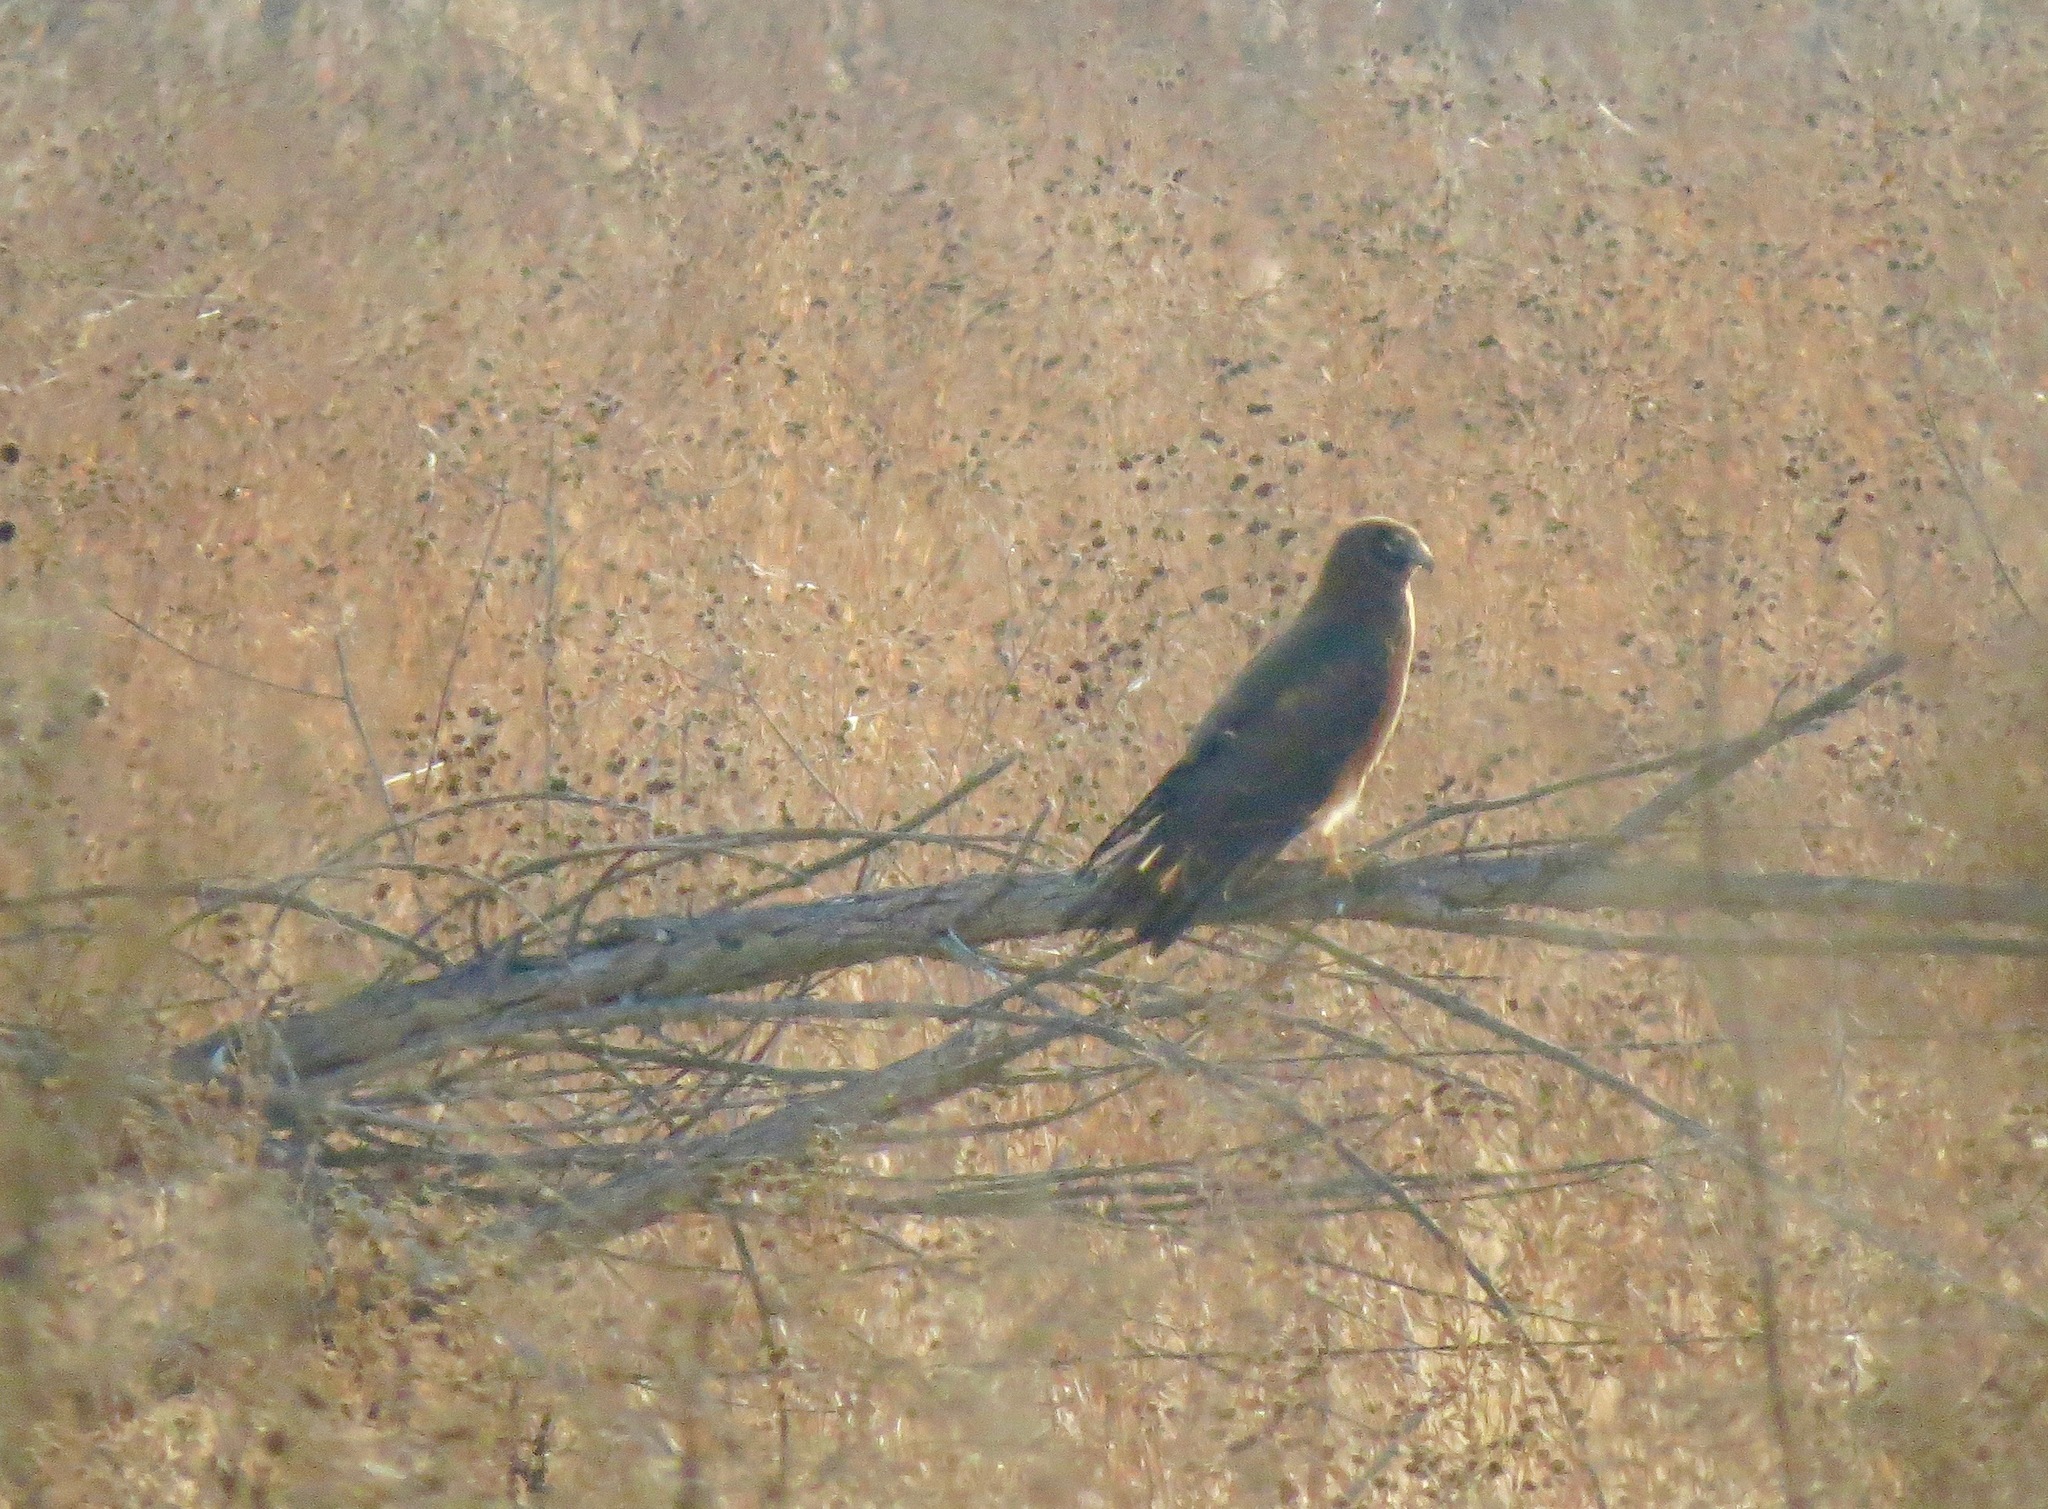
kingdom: Animalia
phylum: Chordata
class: Aves
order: Accipitriformes
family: Accipitridae
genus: Circus
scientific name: Circus cyaneus
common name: Hen harrier
